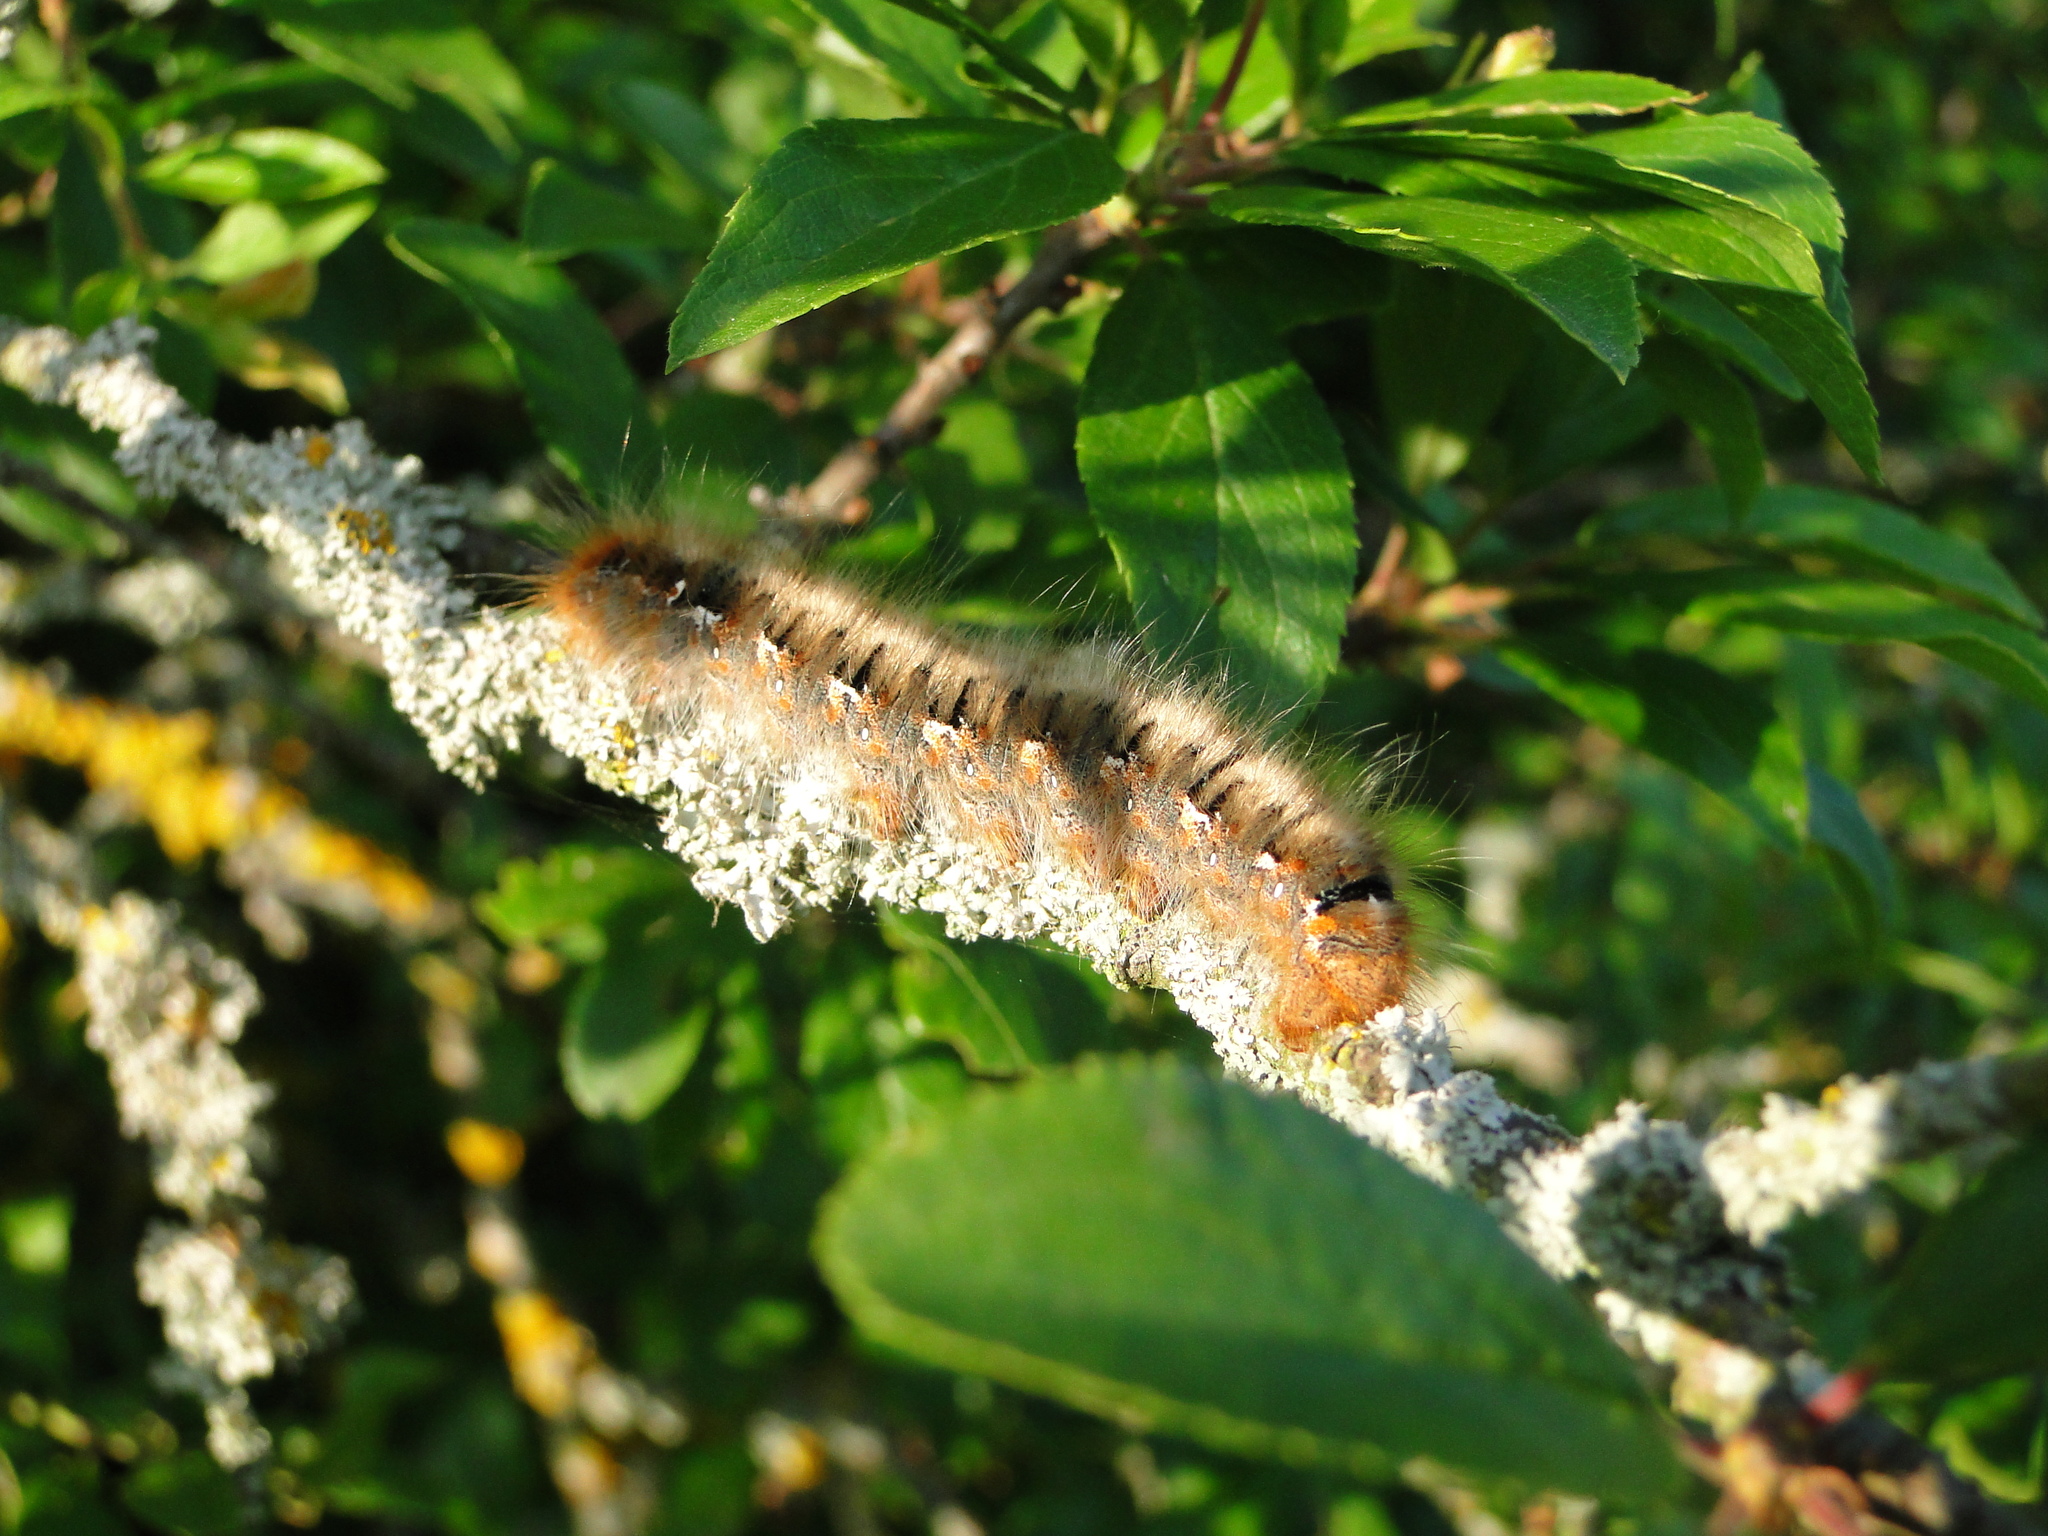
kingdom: Animalia
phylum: Arthropoda
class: Insecta
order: Lepidoptera
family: Lasiocampidae
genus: Lasiocampa
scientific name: Lasiocampa quercus
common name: Oak eggar
